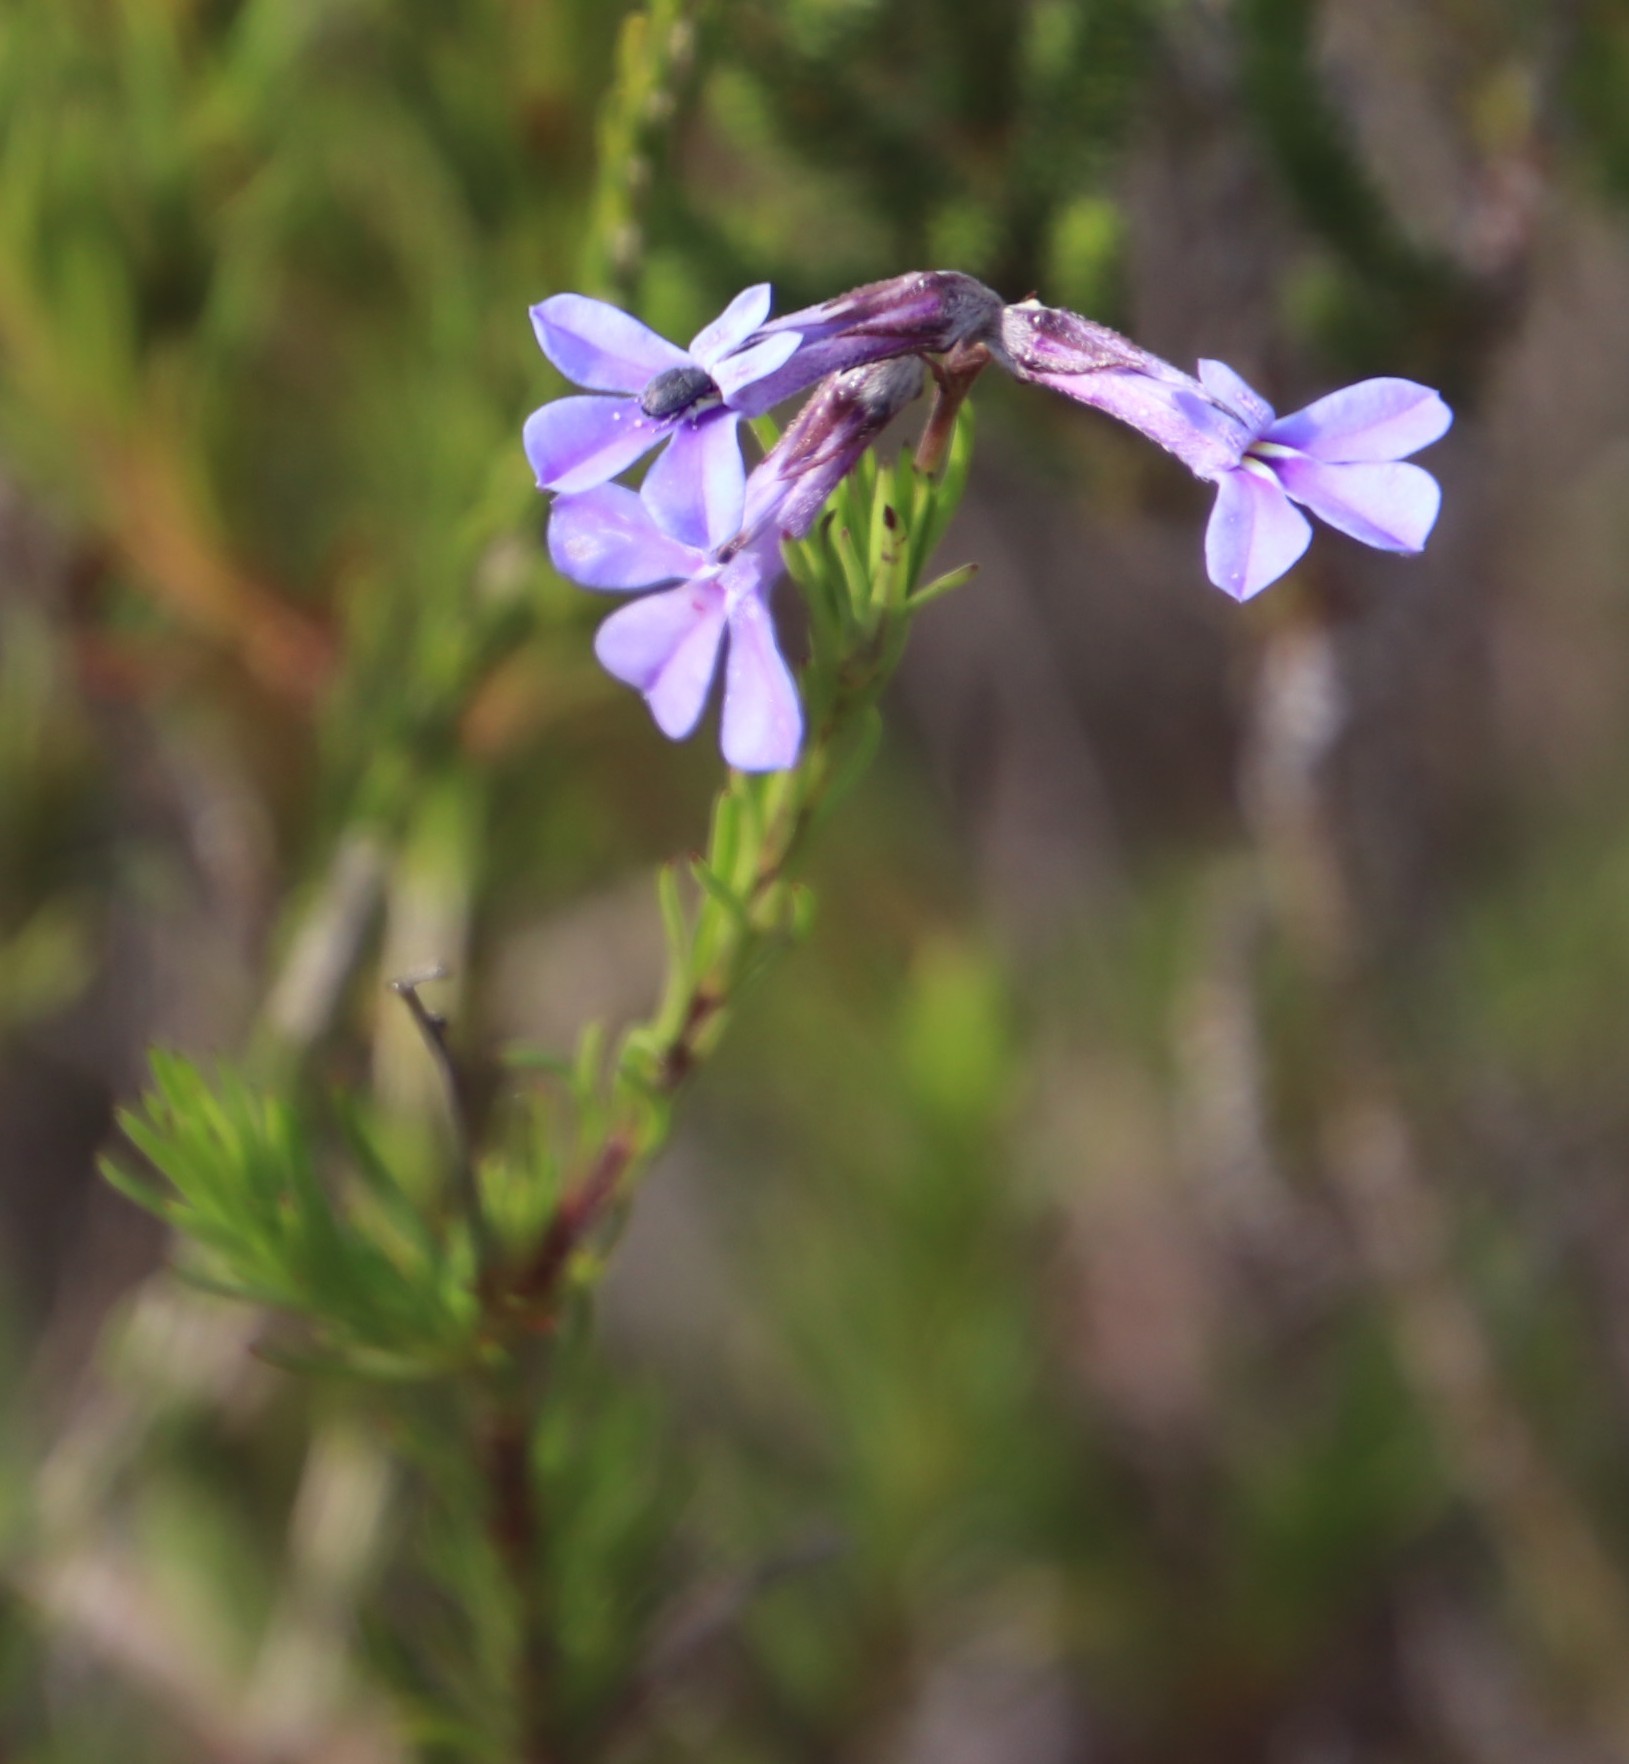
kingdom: Plantae
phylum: Tracheophyta
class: Magnoliopsida
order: Asterales
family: Campanulaceae
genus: Lobelia
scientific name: Lobelia pinifolia
